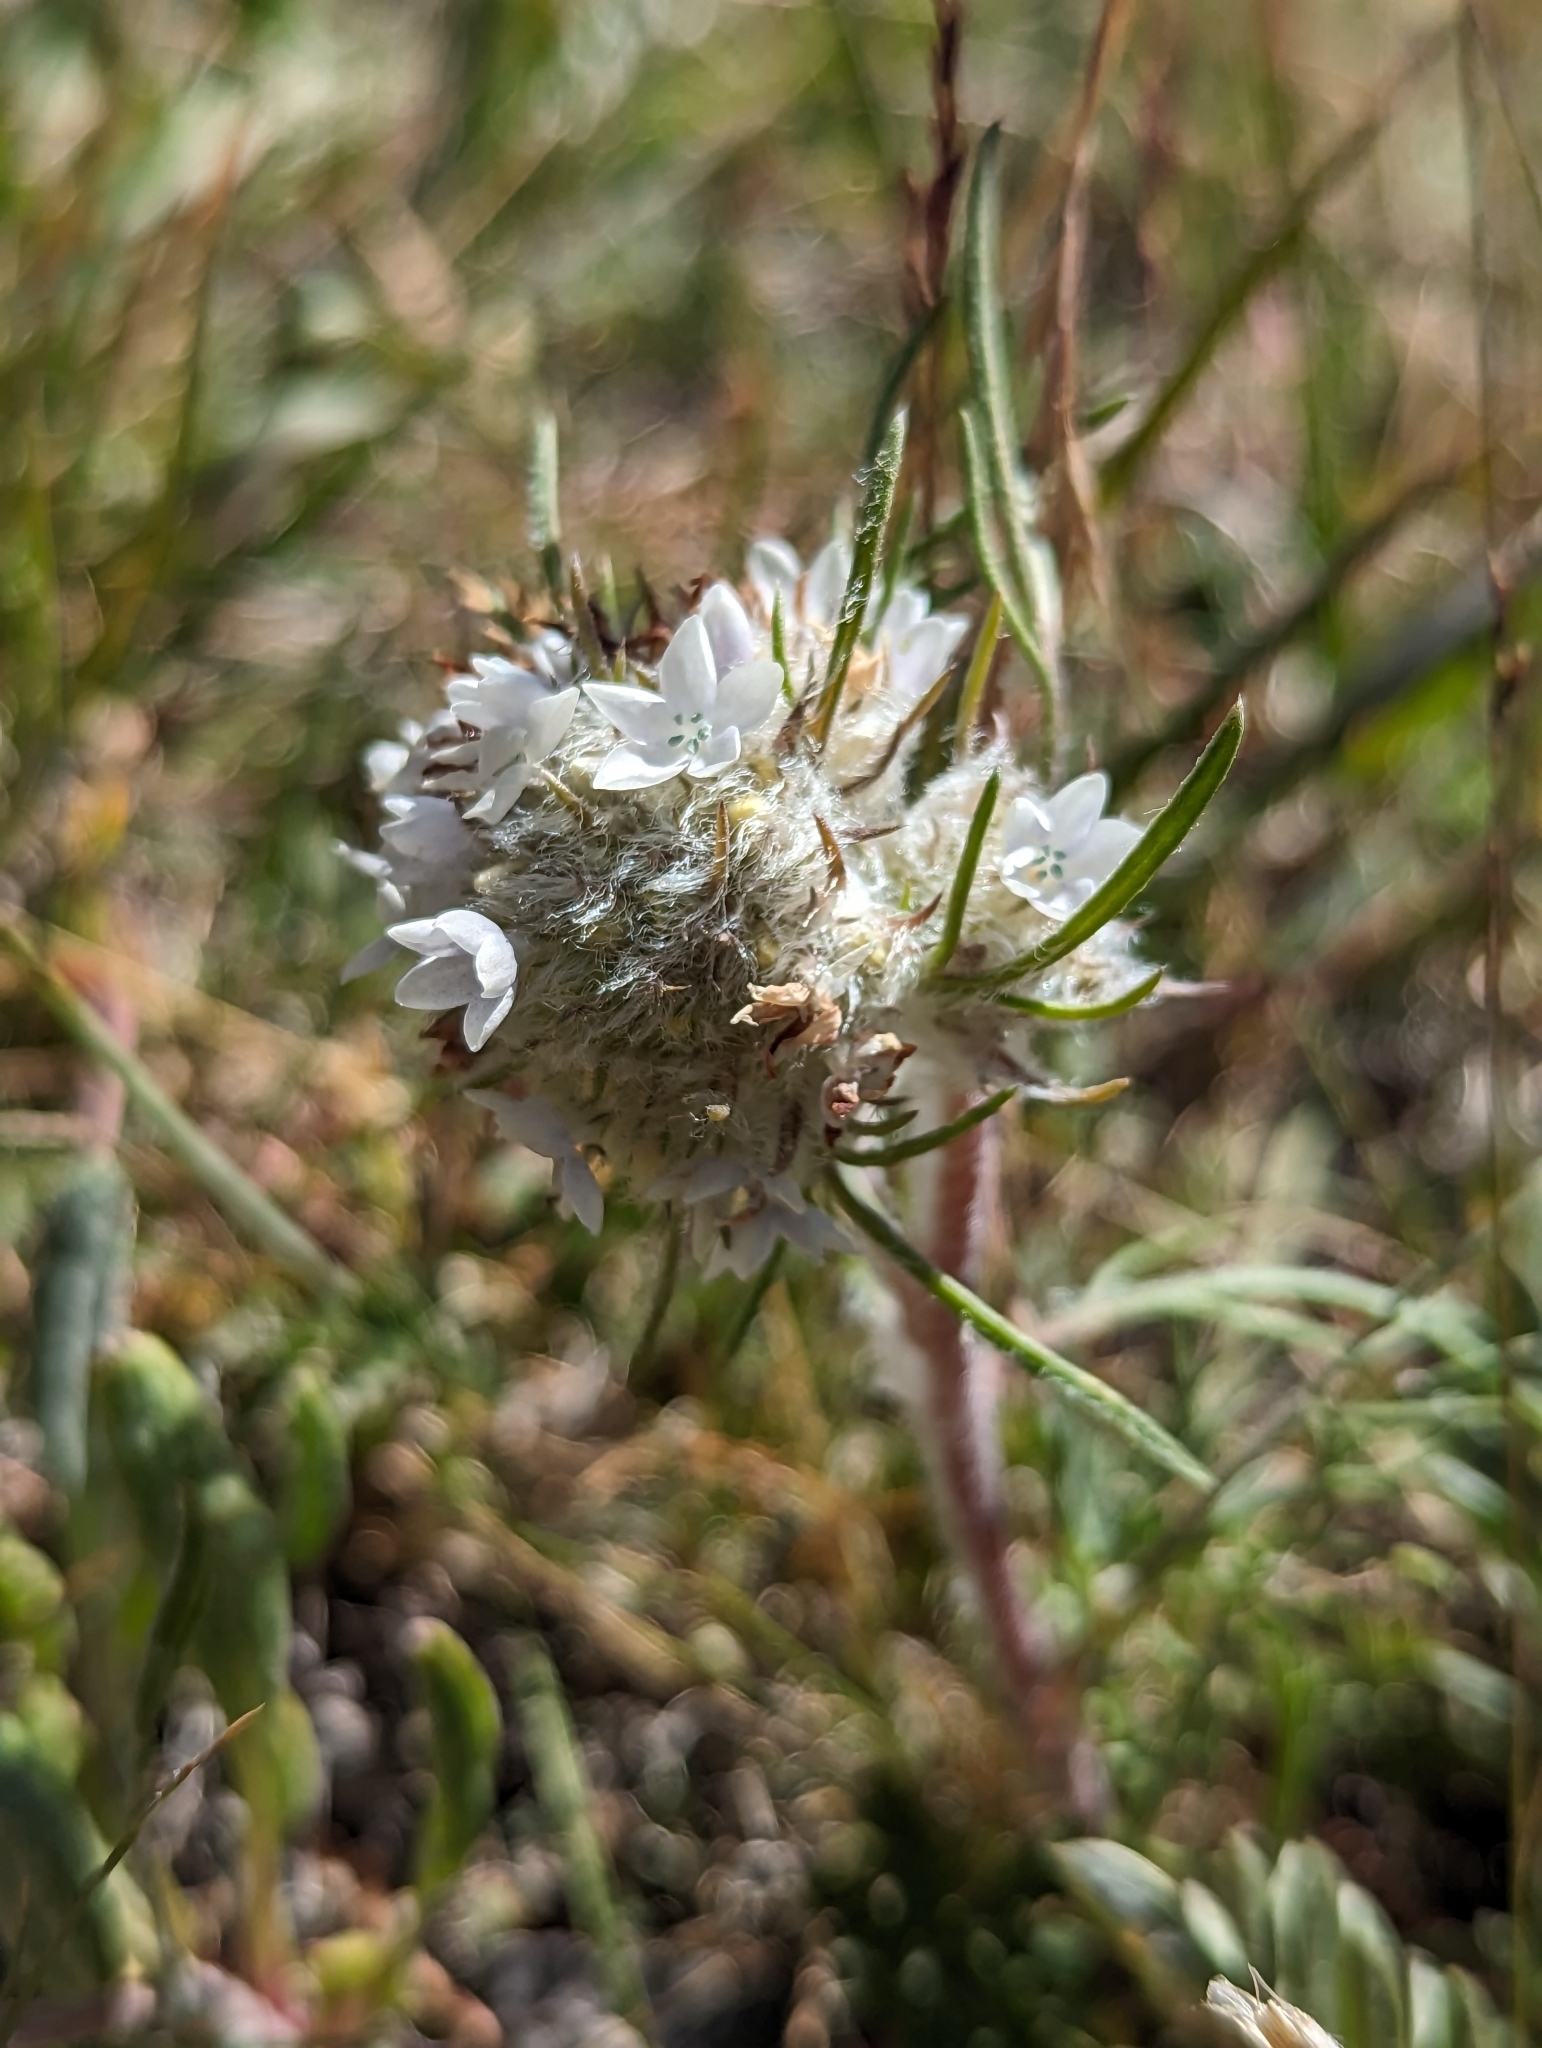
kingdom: Plantae
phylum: Tracheophyta
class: Magnoliopsida
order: Ericales
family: Polemoniaceae
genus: Ipomopsis
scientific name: Ipomopsis globularis
